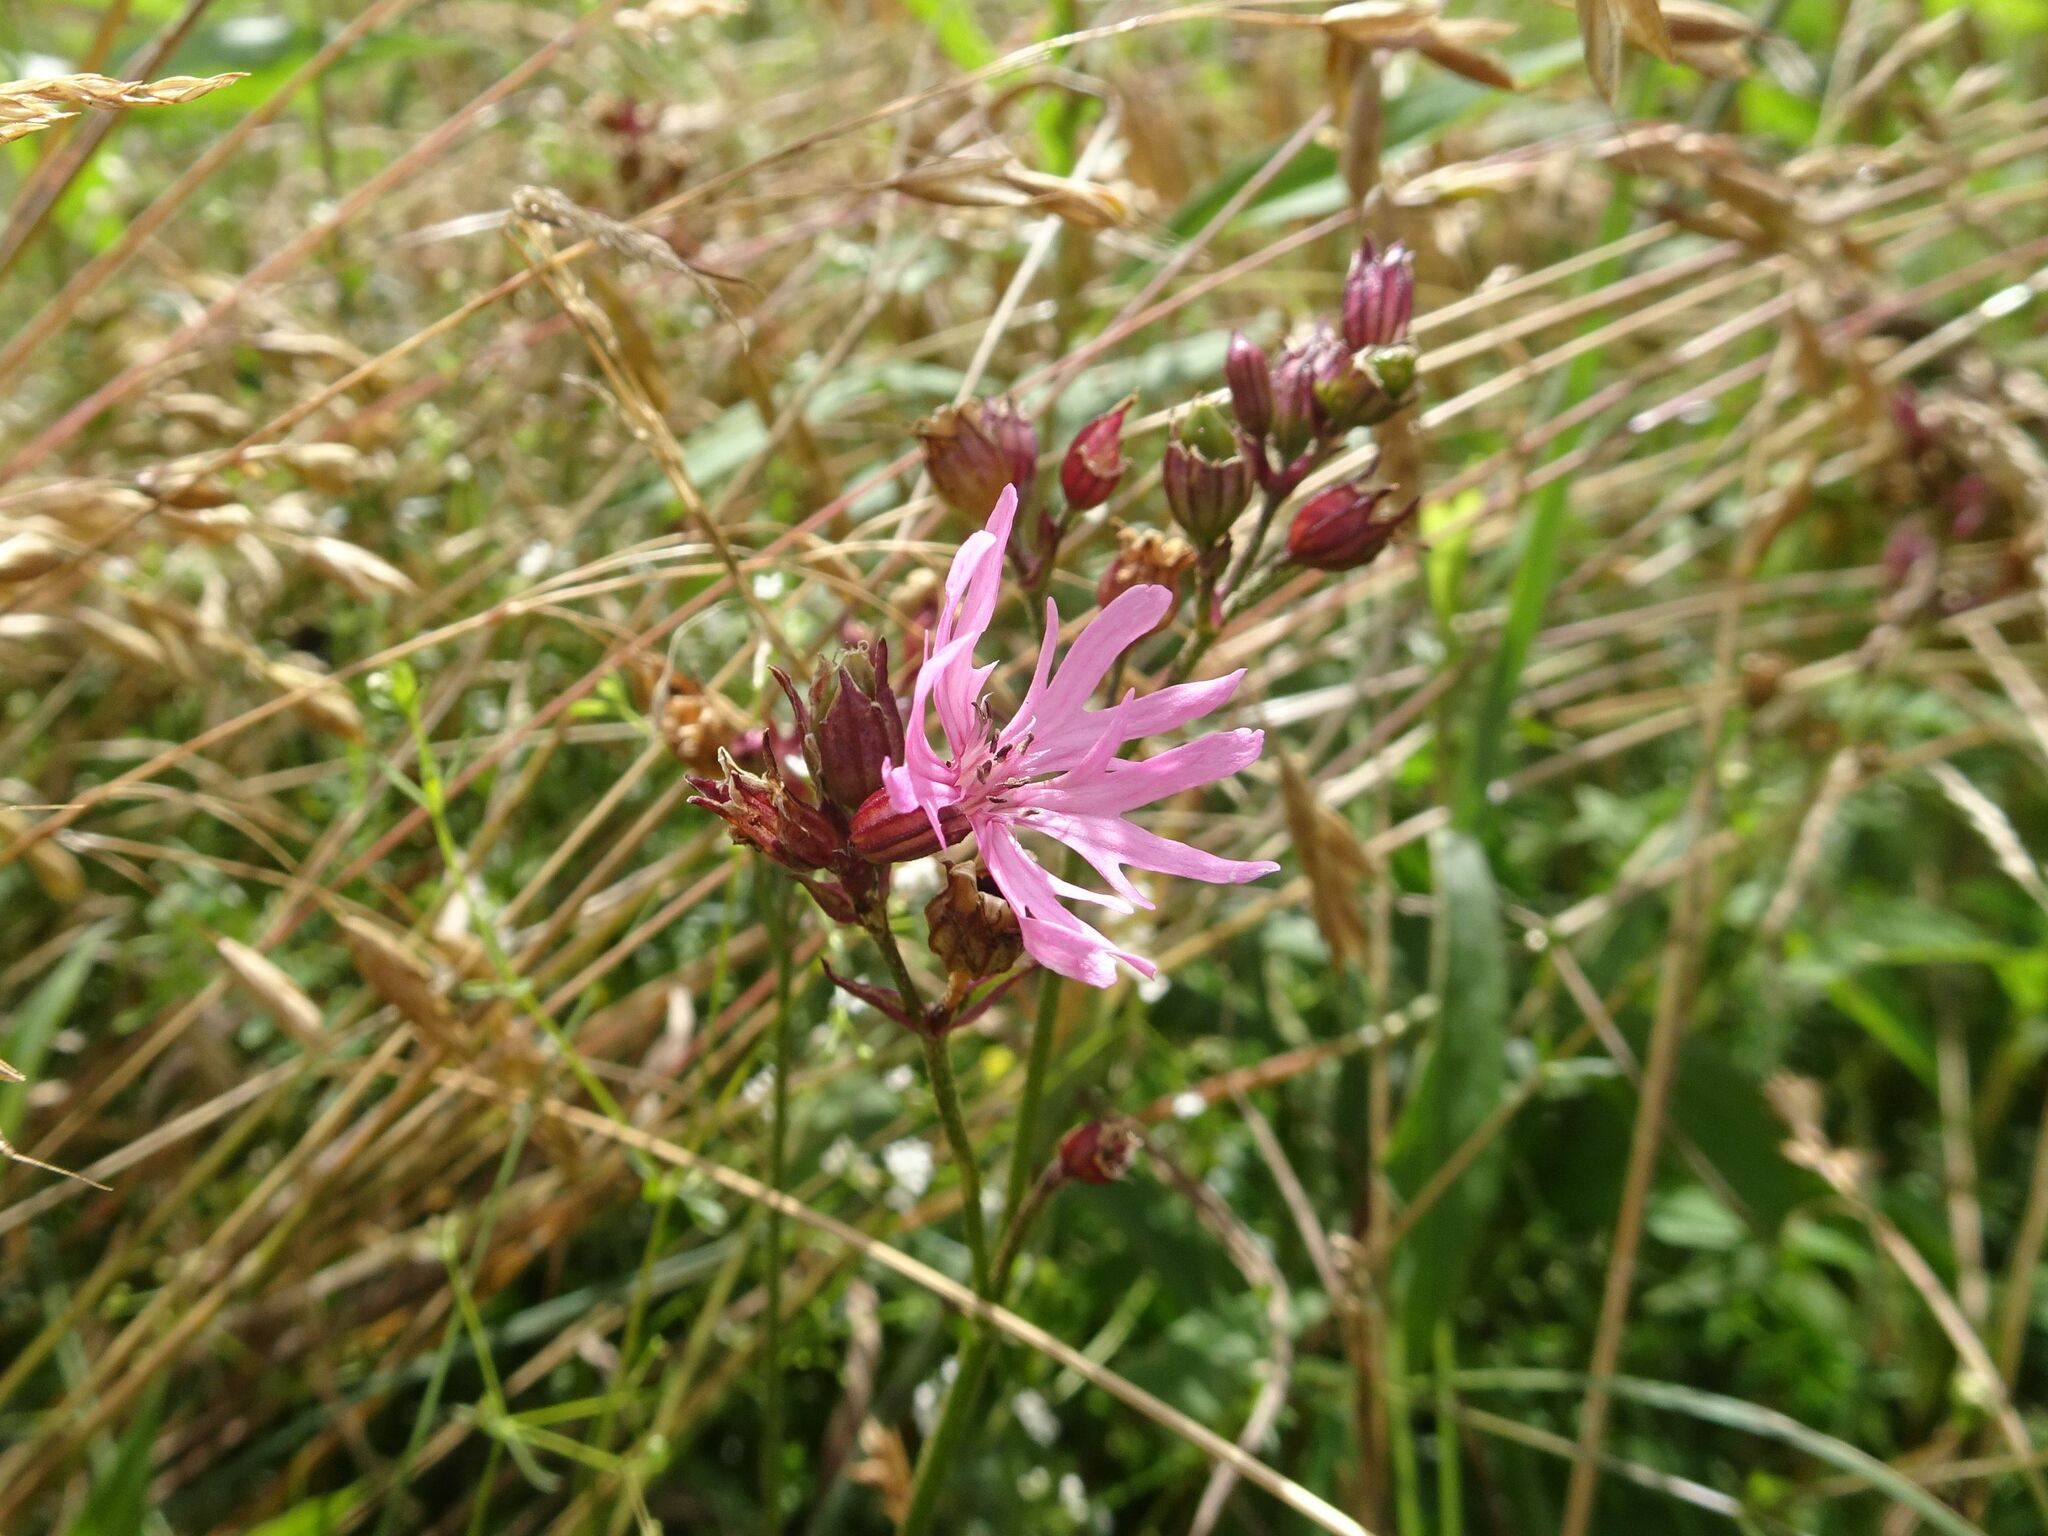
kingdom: Plantae
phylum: Tracheophyta
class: Magnoliopsida
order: Caryophyllales
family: Caryophyllaceae
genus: Silene
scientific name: Silene flos-cuculi
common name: Ragged-robin
